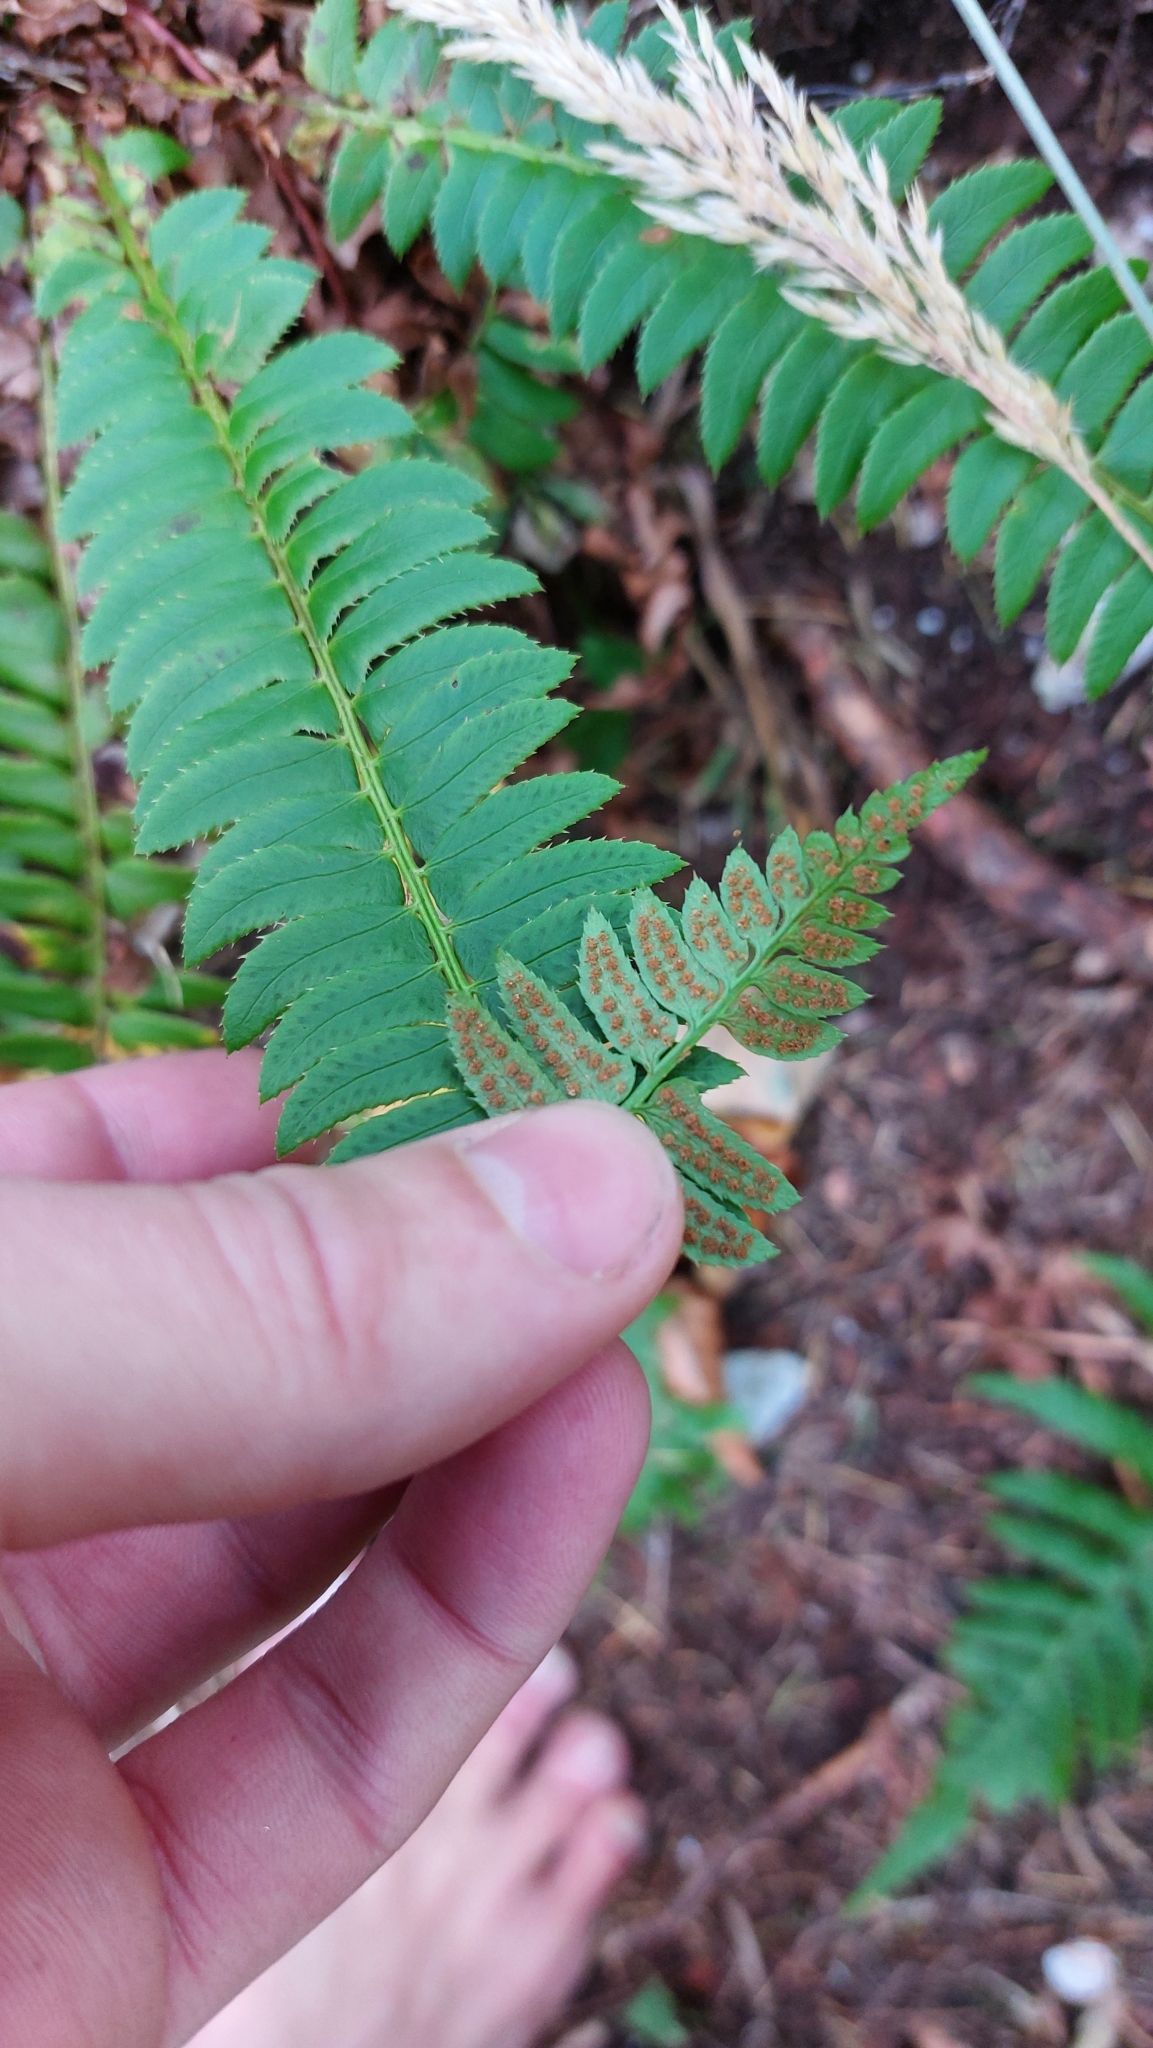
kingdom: Plantae
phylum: Tracheophyta
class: Polypodiopsida
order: Polypodiales
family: Dryopteridaceae
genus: Polystichum
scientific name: Polystichum lonchitis
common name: Holly fern
